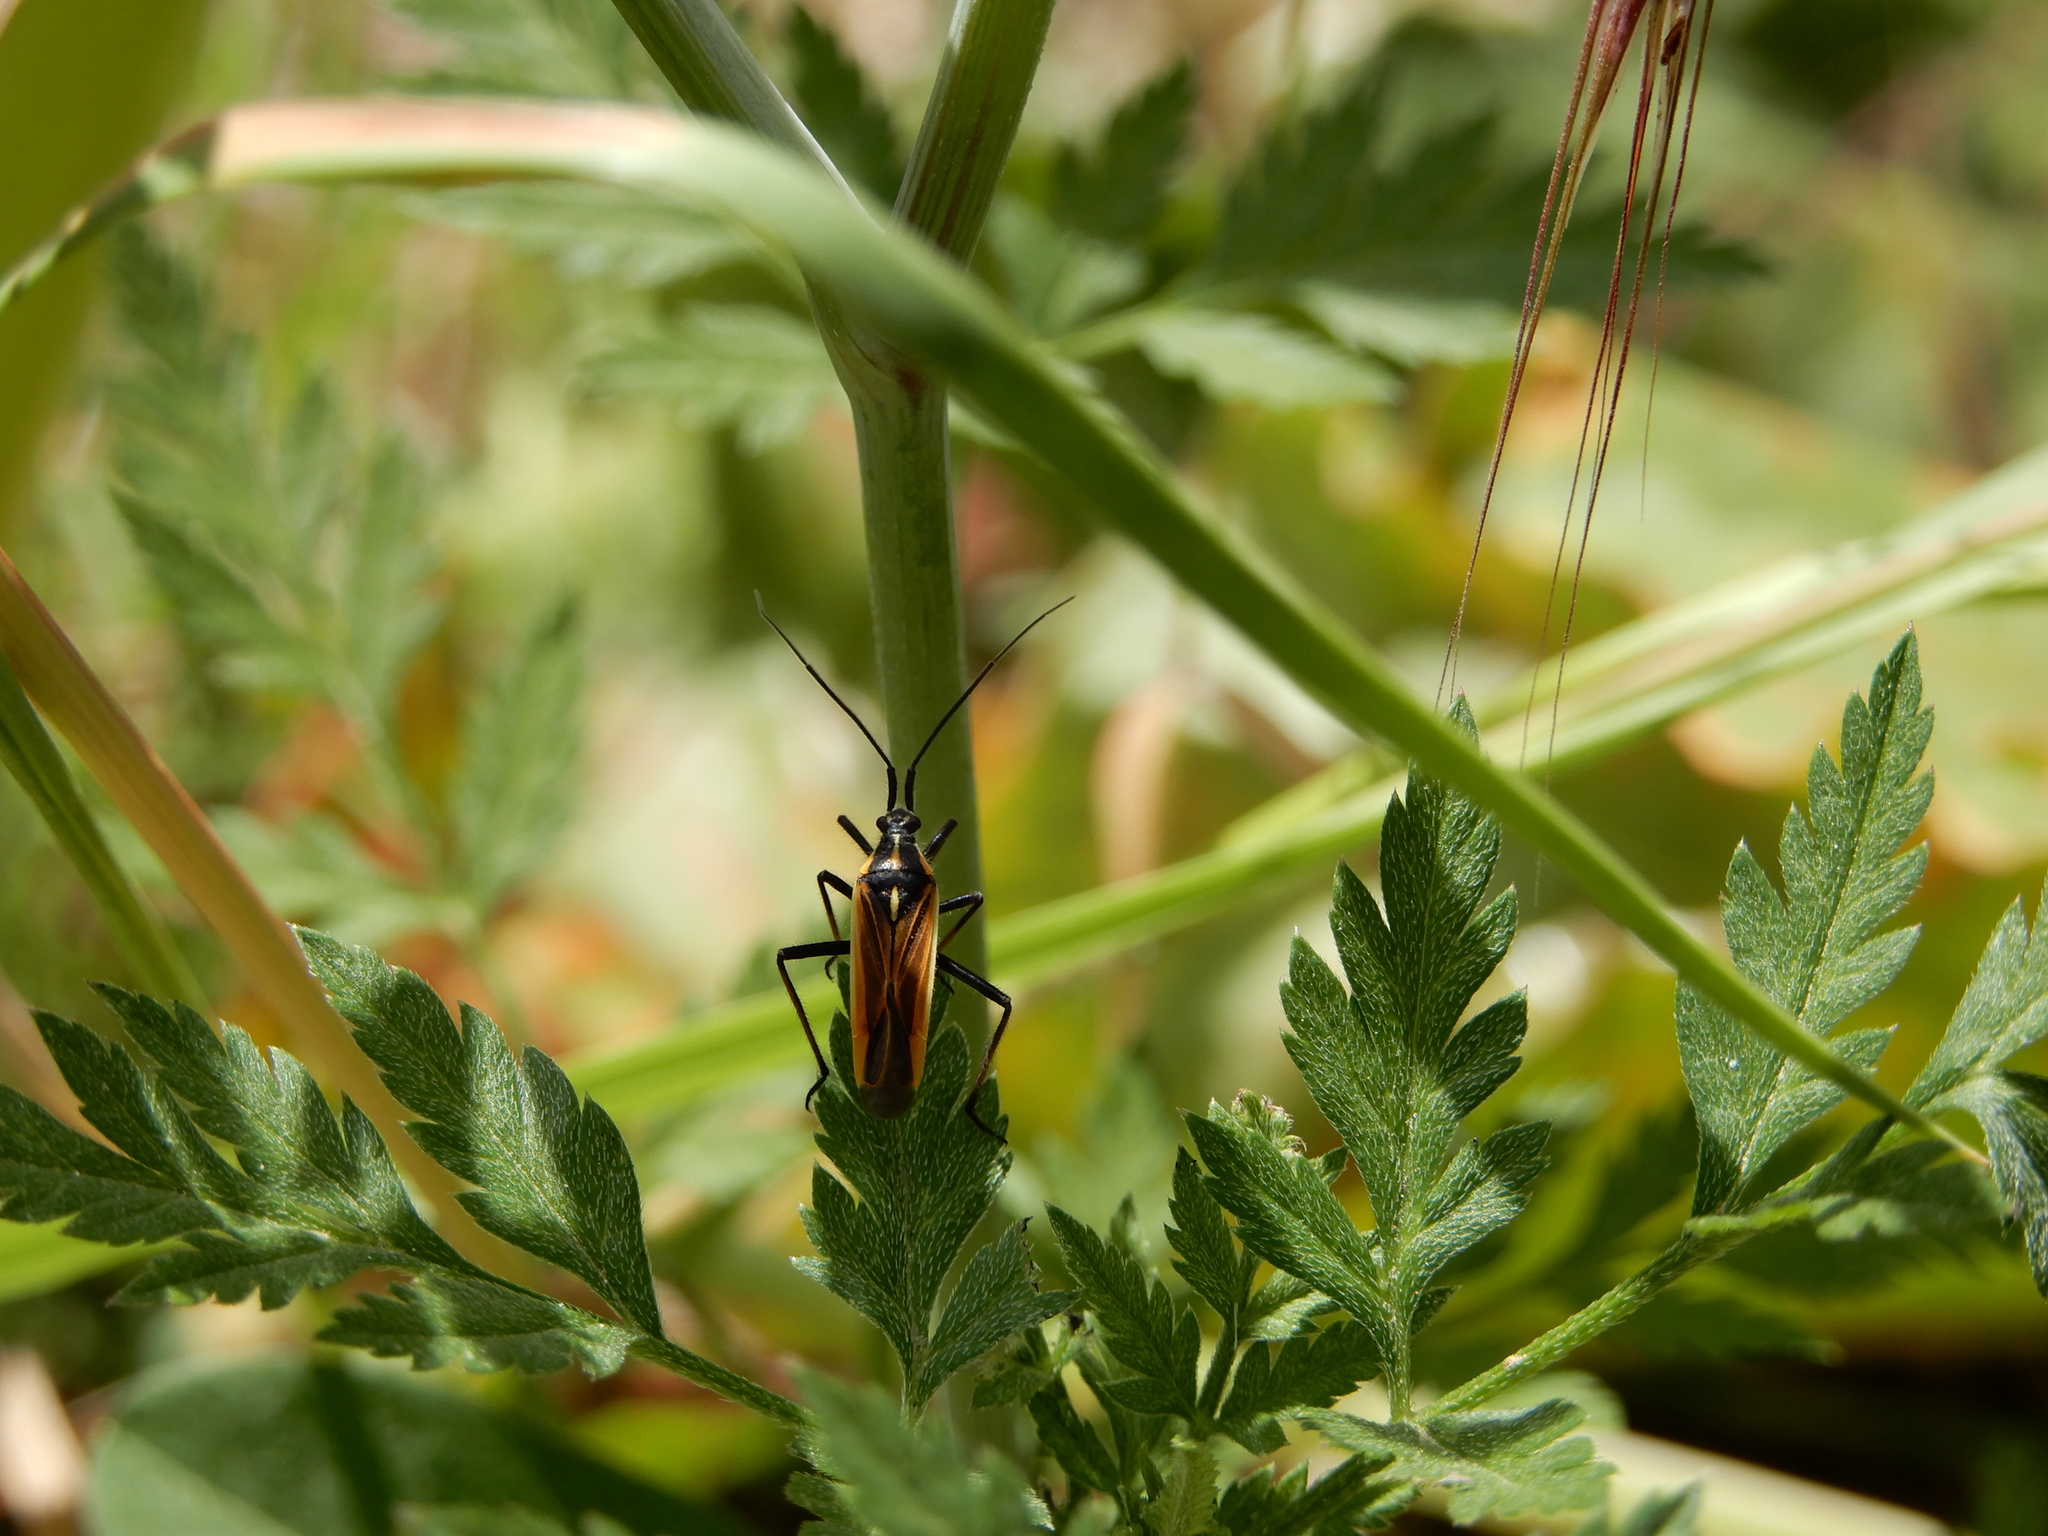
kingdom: Animalia
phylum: Arthropoda
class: Insecta
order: Hemiptera
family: Miridae
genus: Leptopterna
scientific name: Leptopterna dolabrata
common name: Meadow plant bug
